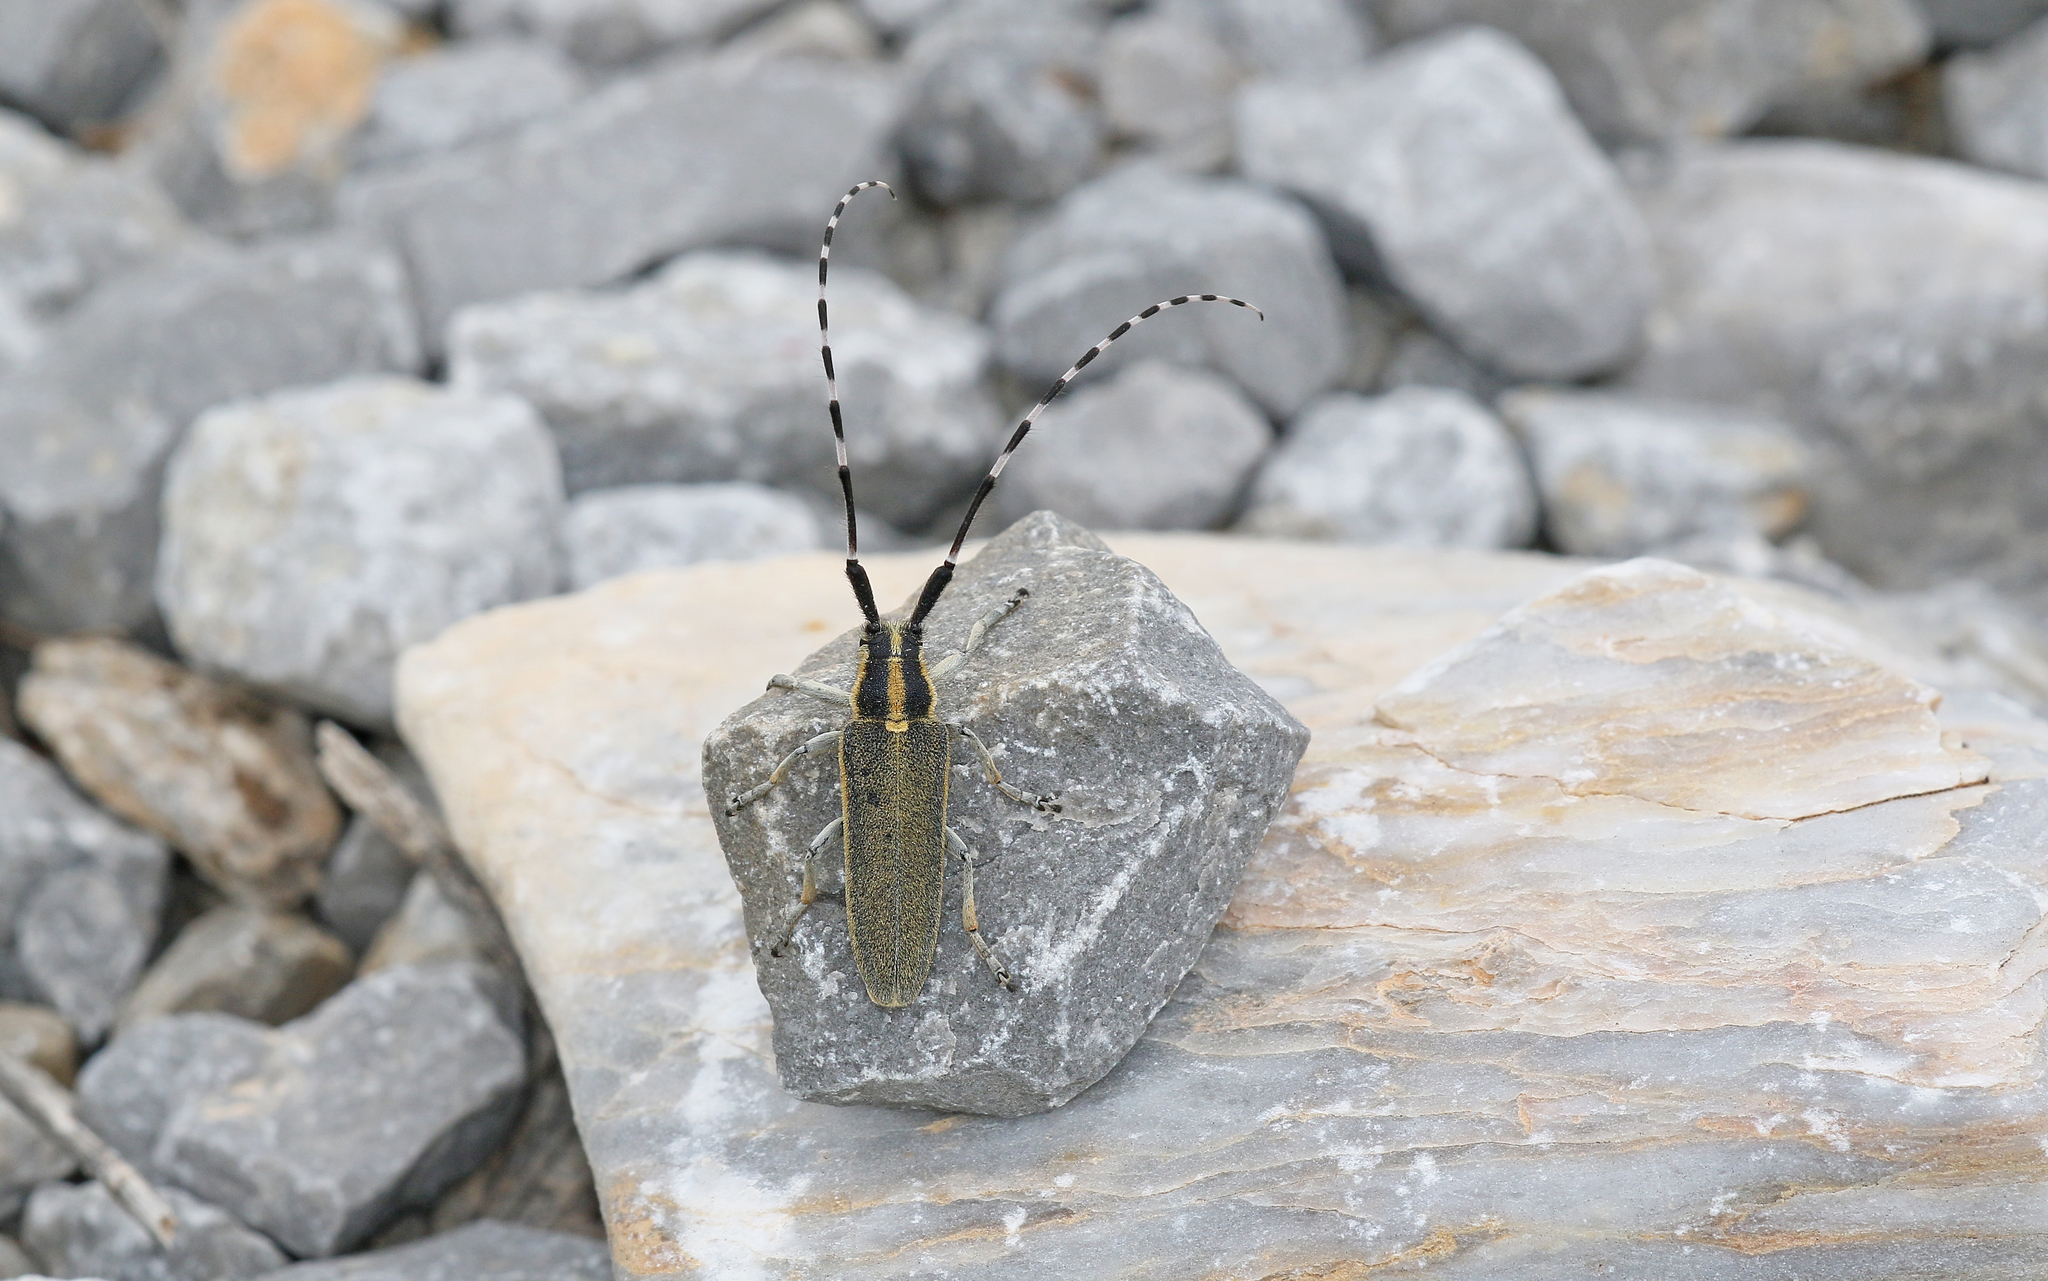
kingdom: Animalia
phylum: Arthropoda
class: Insecta
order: Coleoptera
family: Cerambycidae
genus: Agapanthia
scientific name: Agapanthia cynarae
